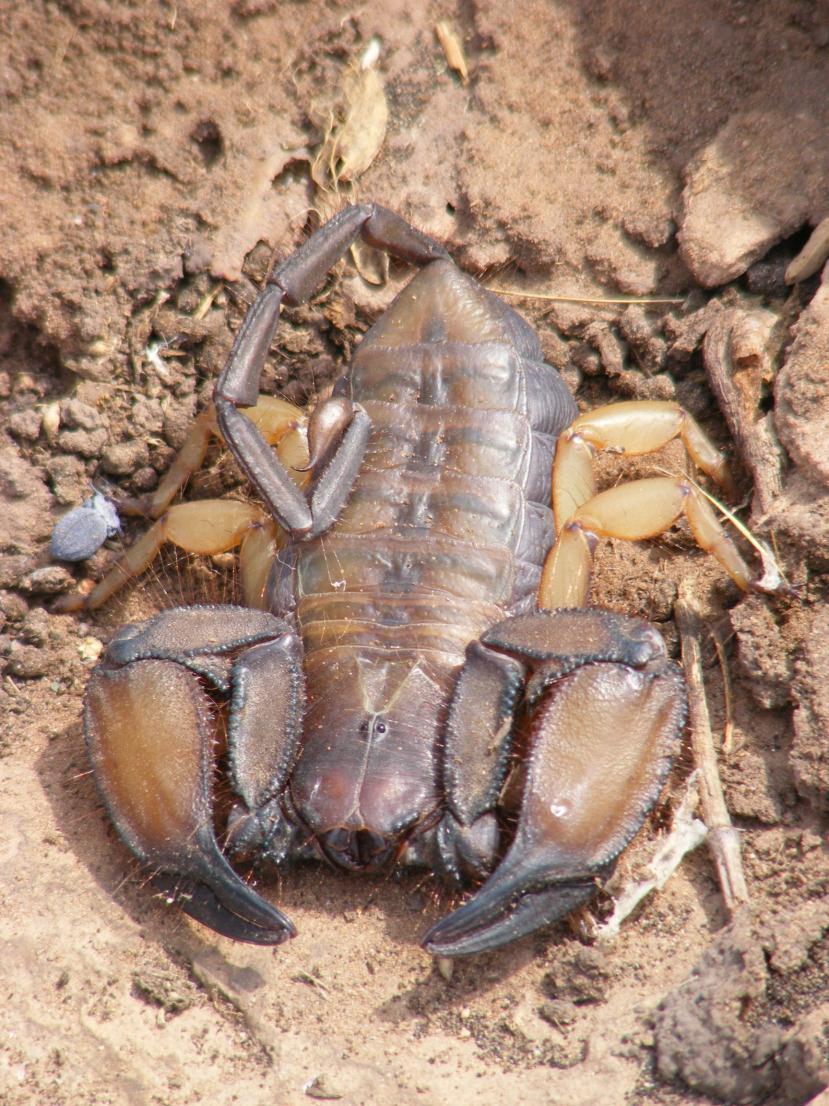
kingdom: Animalia
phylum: Arthropoda
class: Arachnida
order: Scorpiones
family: Hormuridae
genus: Hadogenes
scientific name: Hadogenes troglodytes
